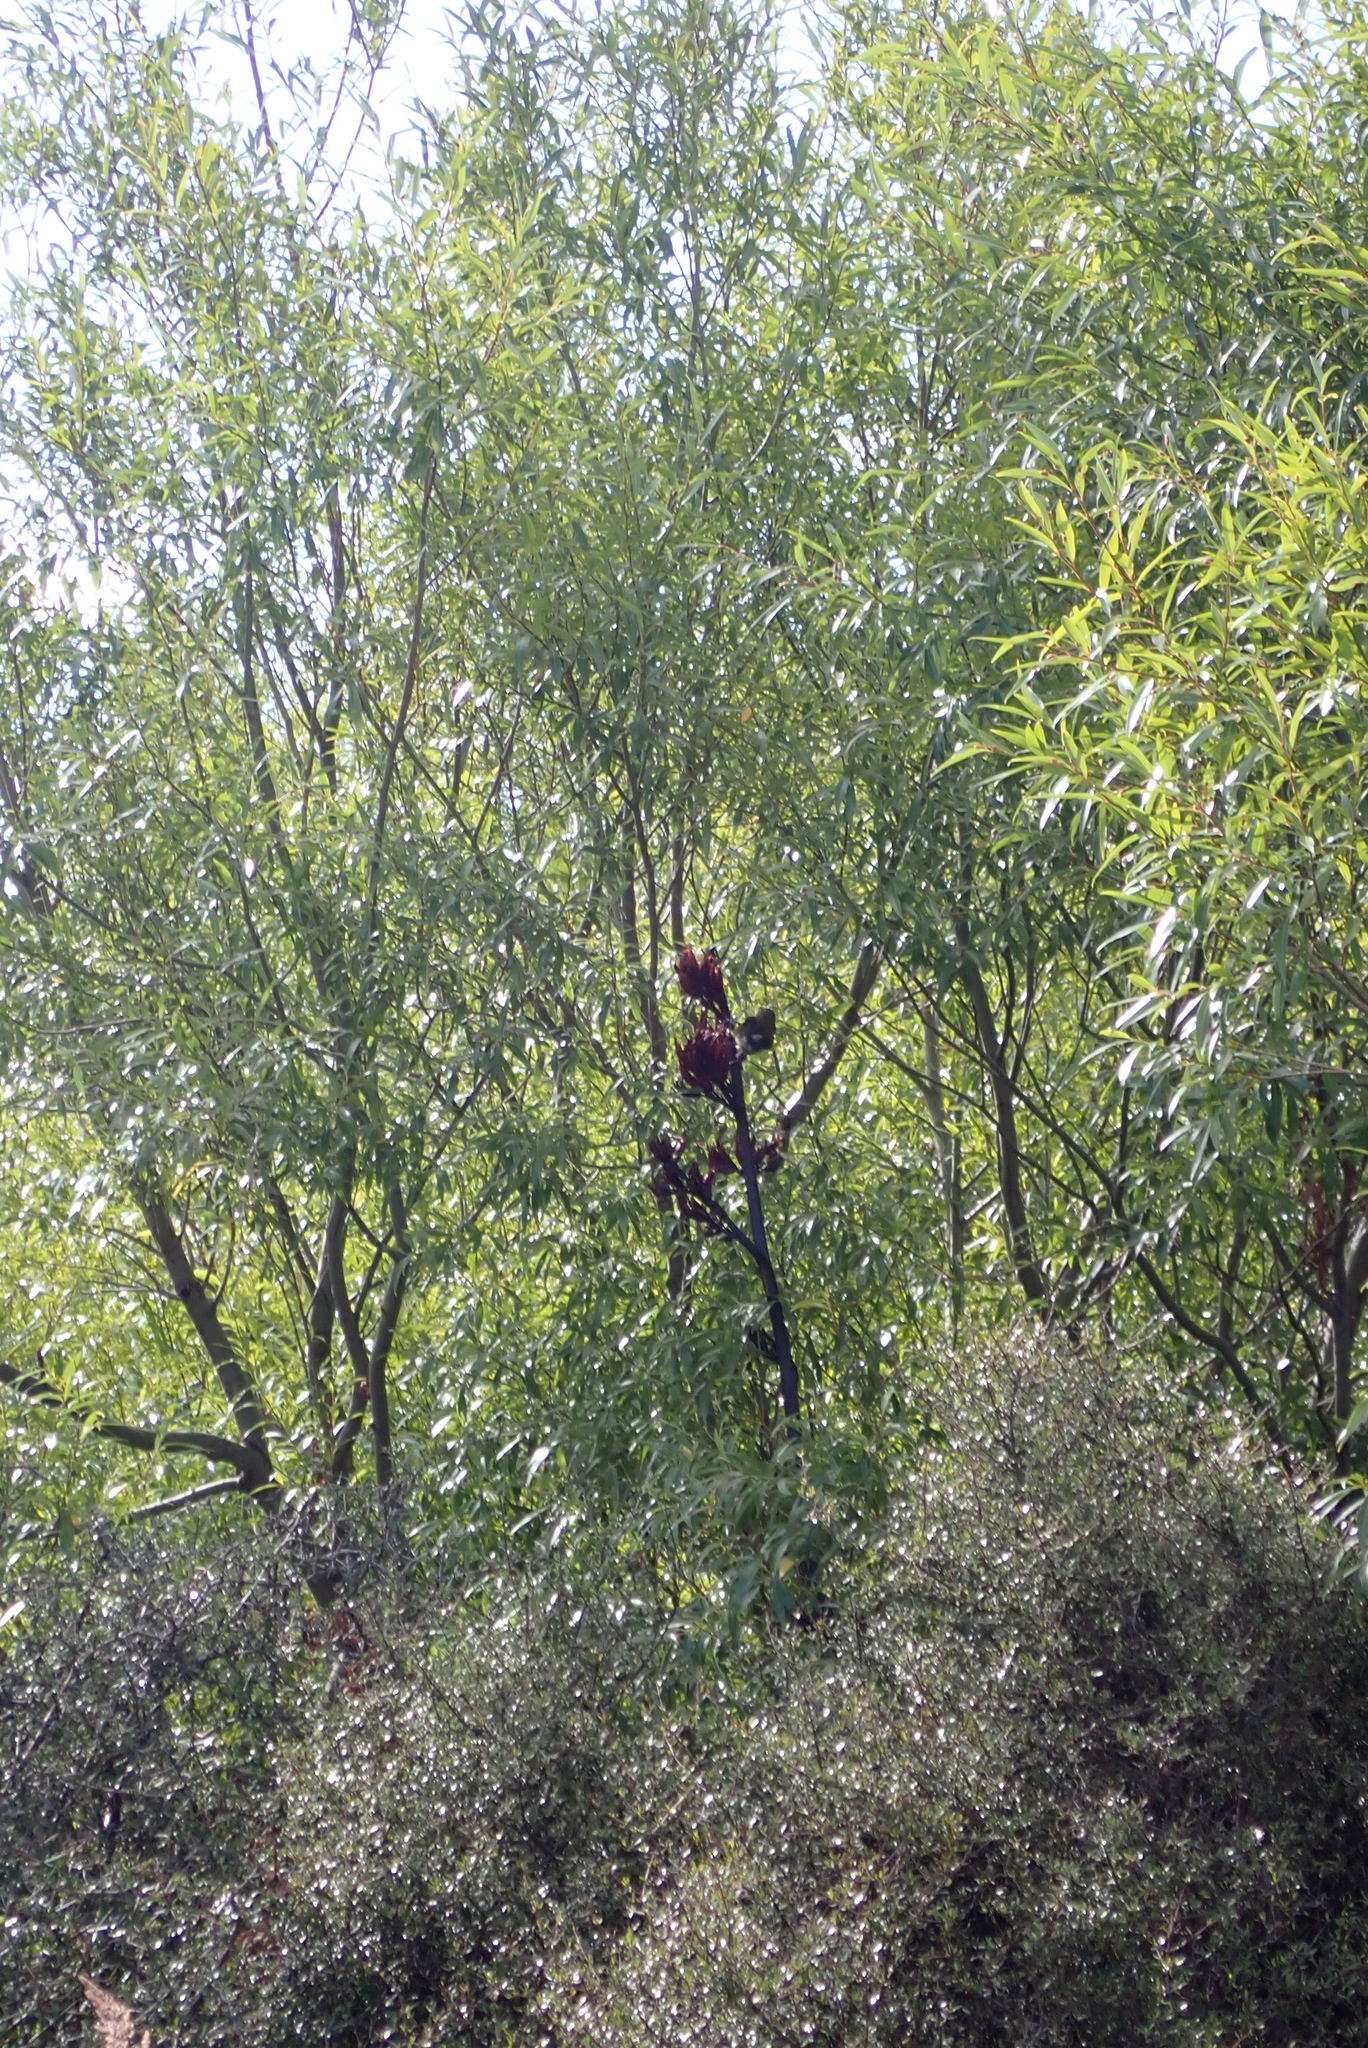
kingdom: Animalia
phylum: Chordata
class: Aves
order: Passeriformes
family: Meliphagidae
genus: Anthornis
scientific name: Anthornis melanura
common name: New zealand bellbird
